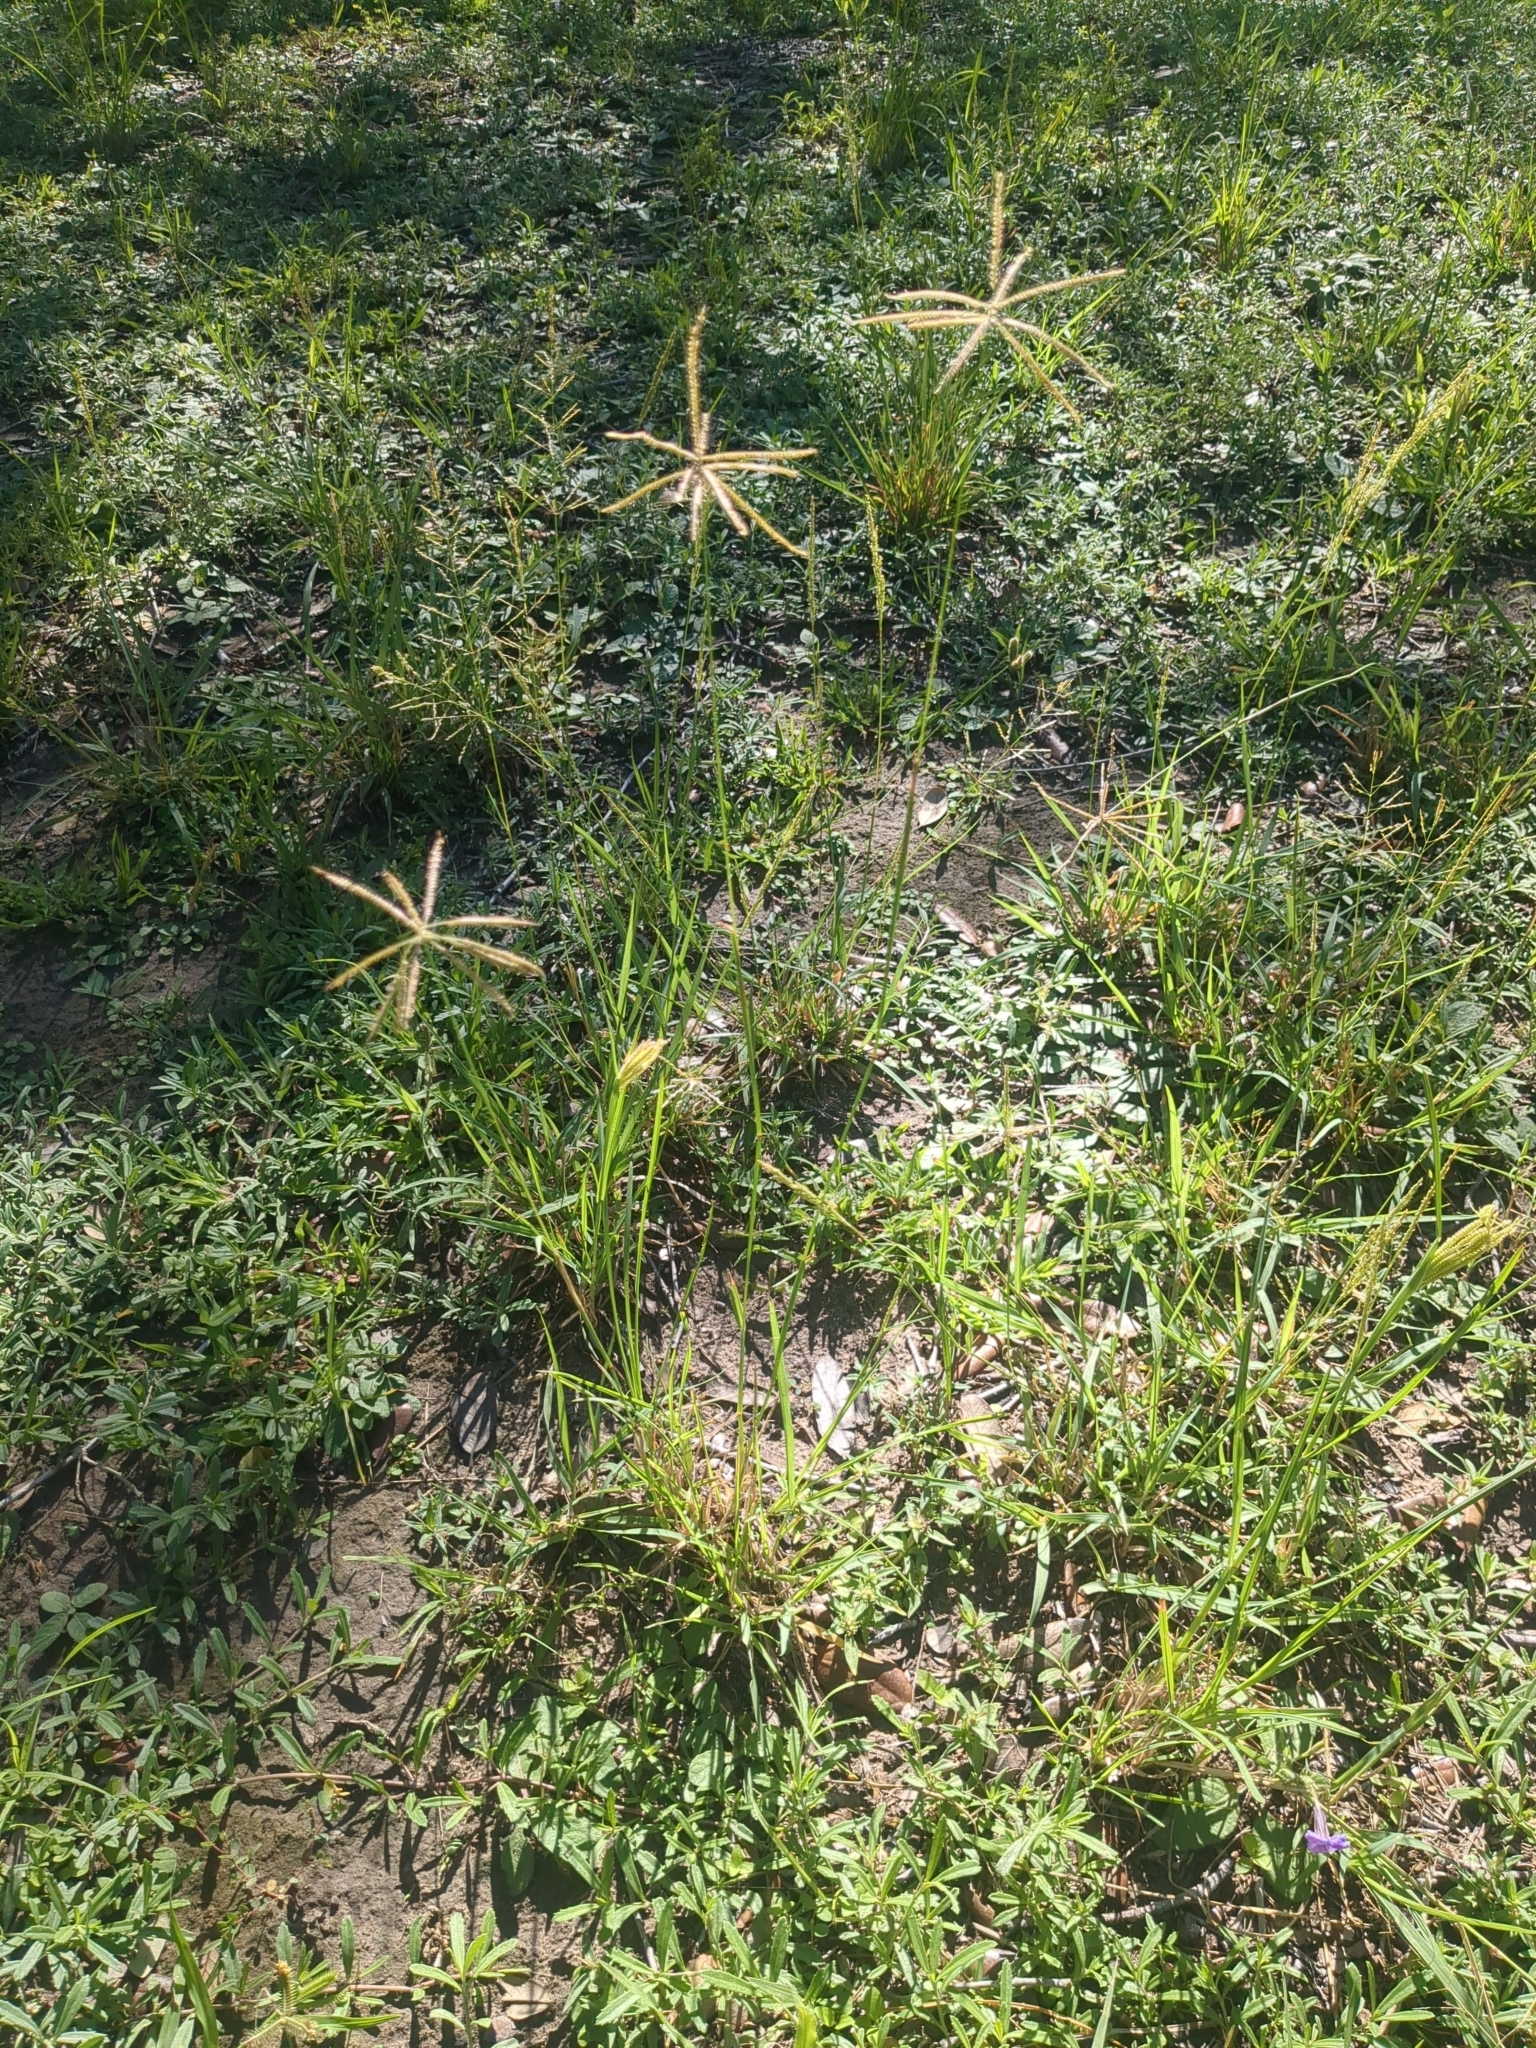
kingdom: Plantae
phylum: Tracheophyta
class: Liliopsida
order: Poales
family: Poaceae
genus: Chloris
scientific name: Chloris cucullata
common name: Hooded windmill grass
